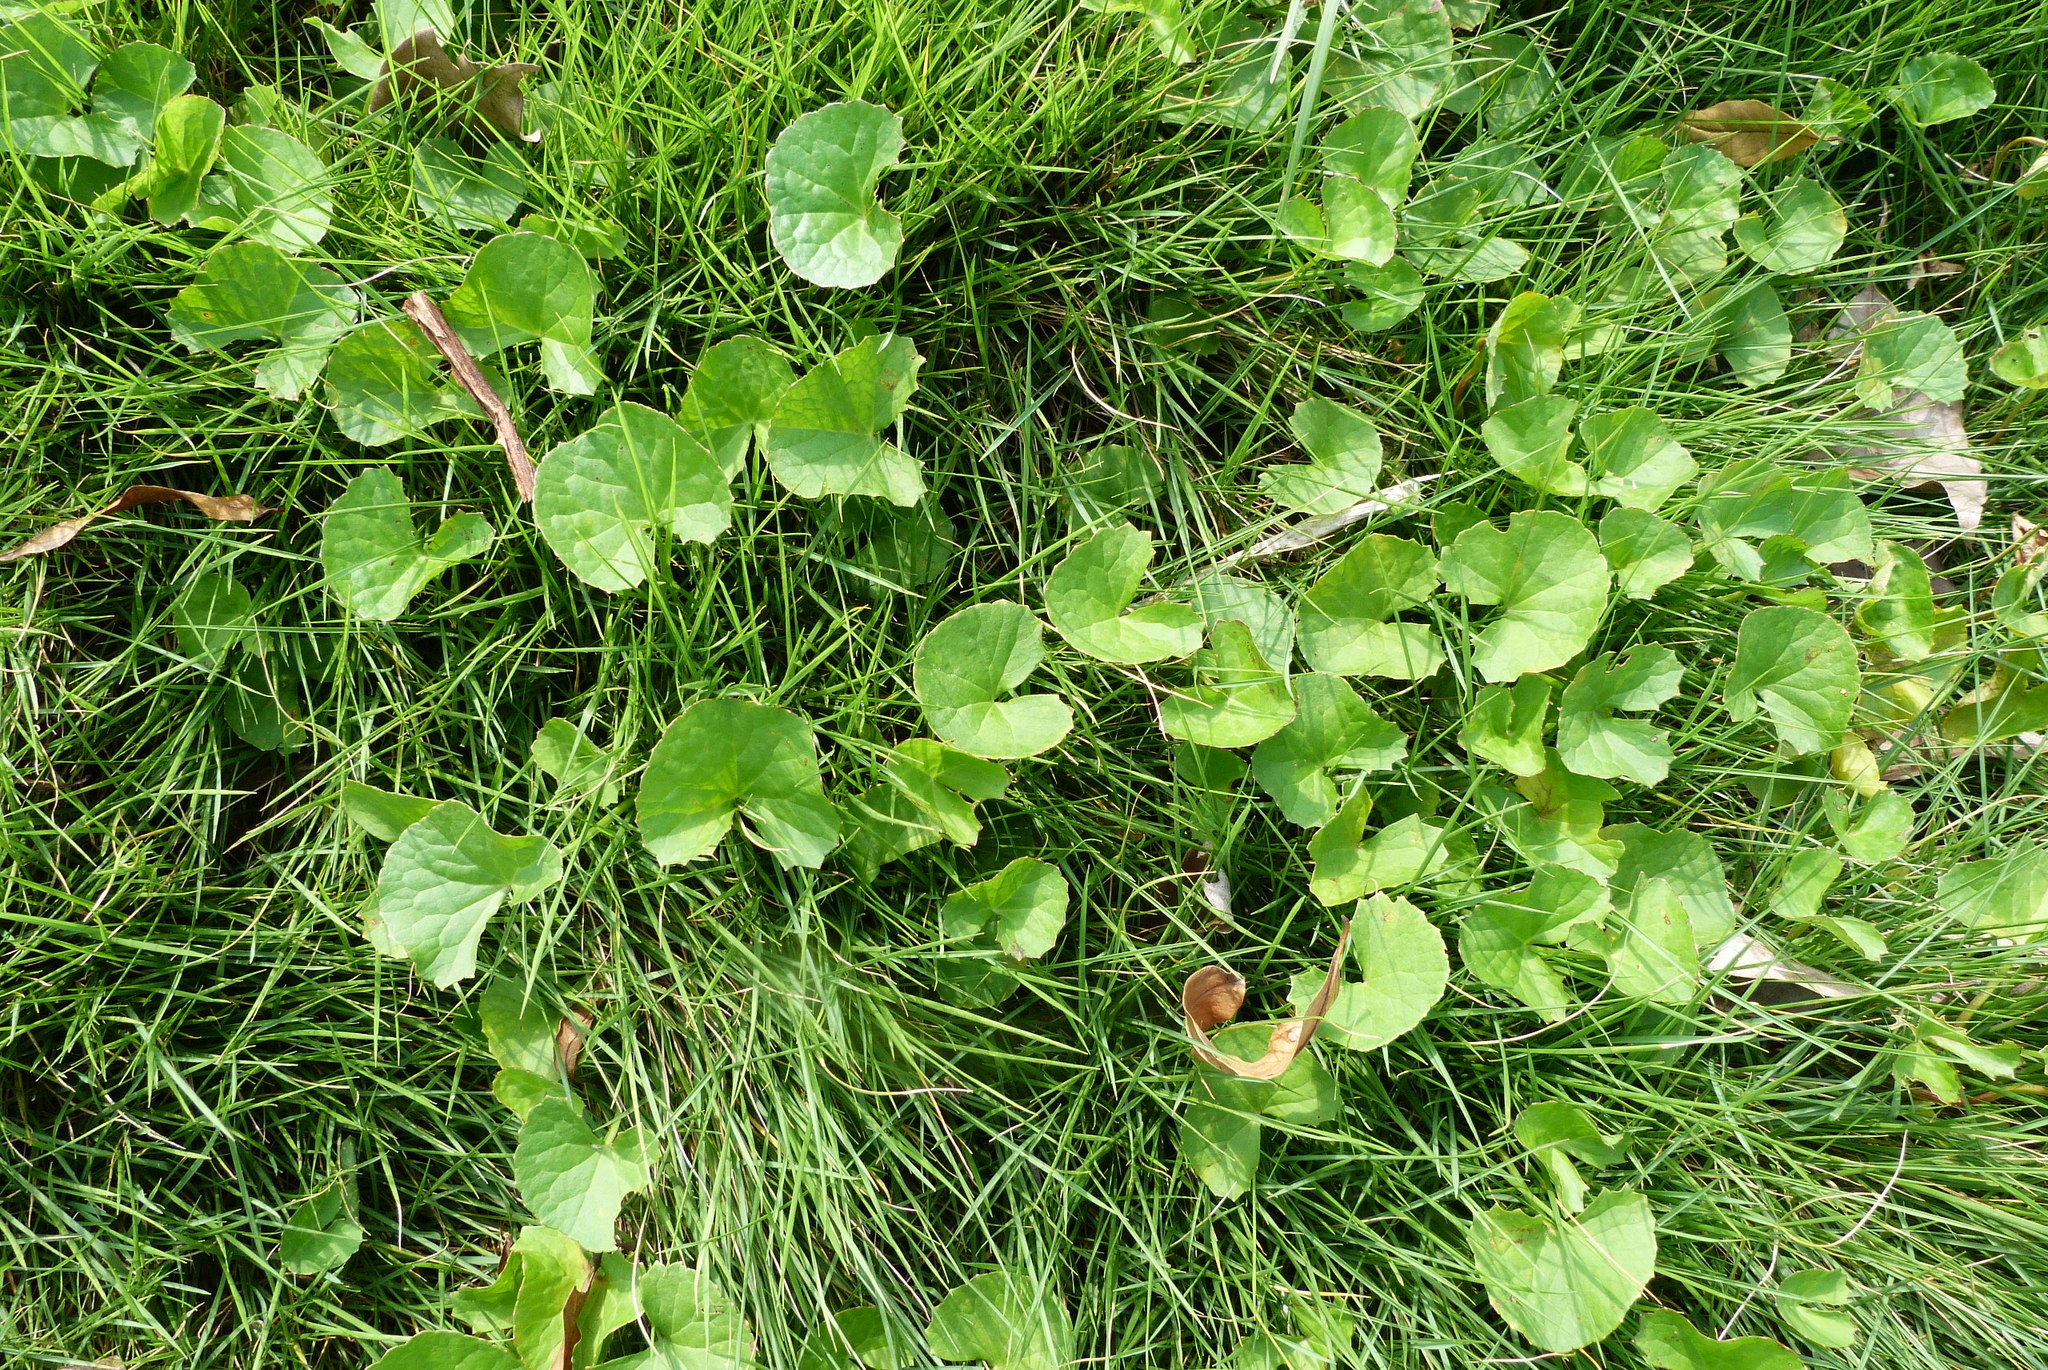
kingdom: Plantae
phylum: Tracheophyta
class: Magnoliopsida
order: Apiales
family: Apiaceae
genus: Centella
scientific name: Centella asiatica
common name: Spadeleaf
